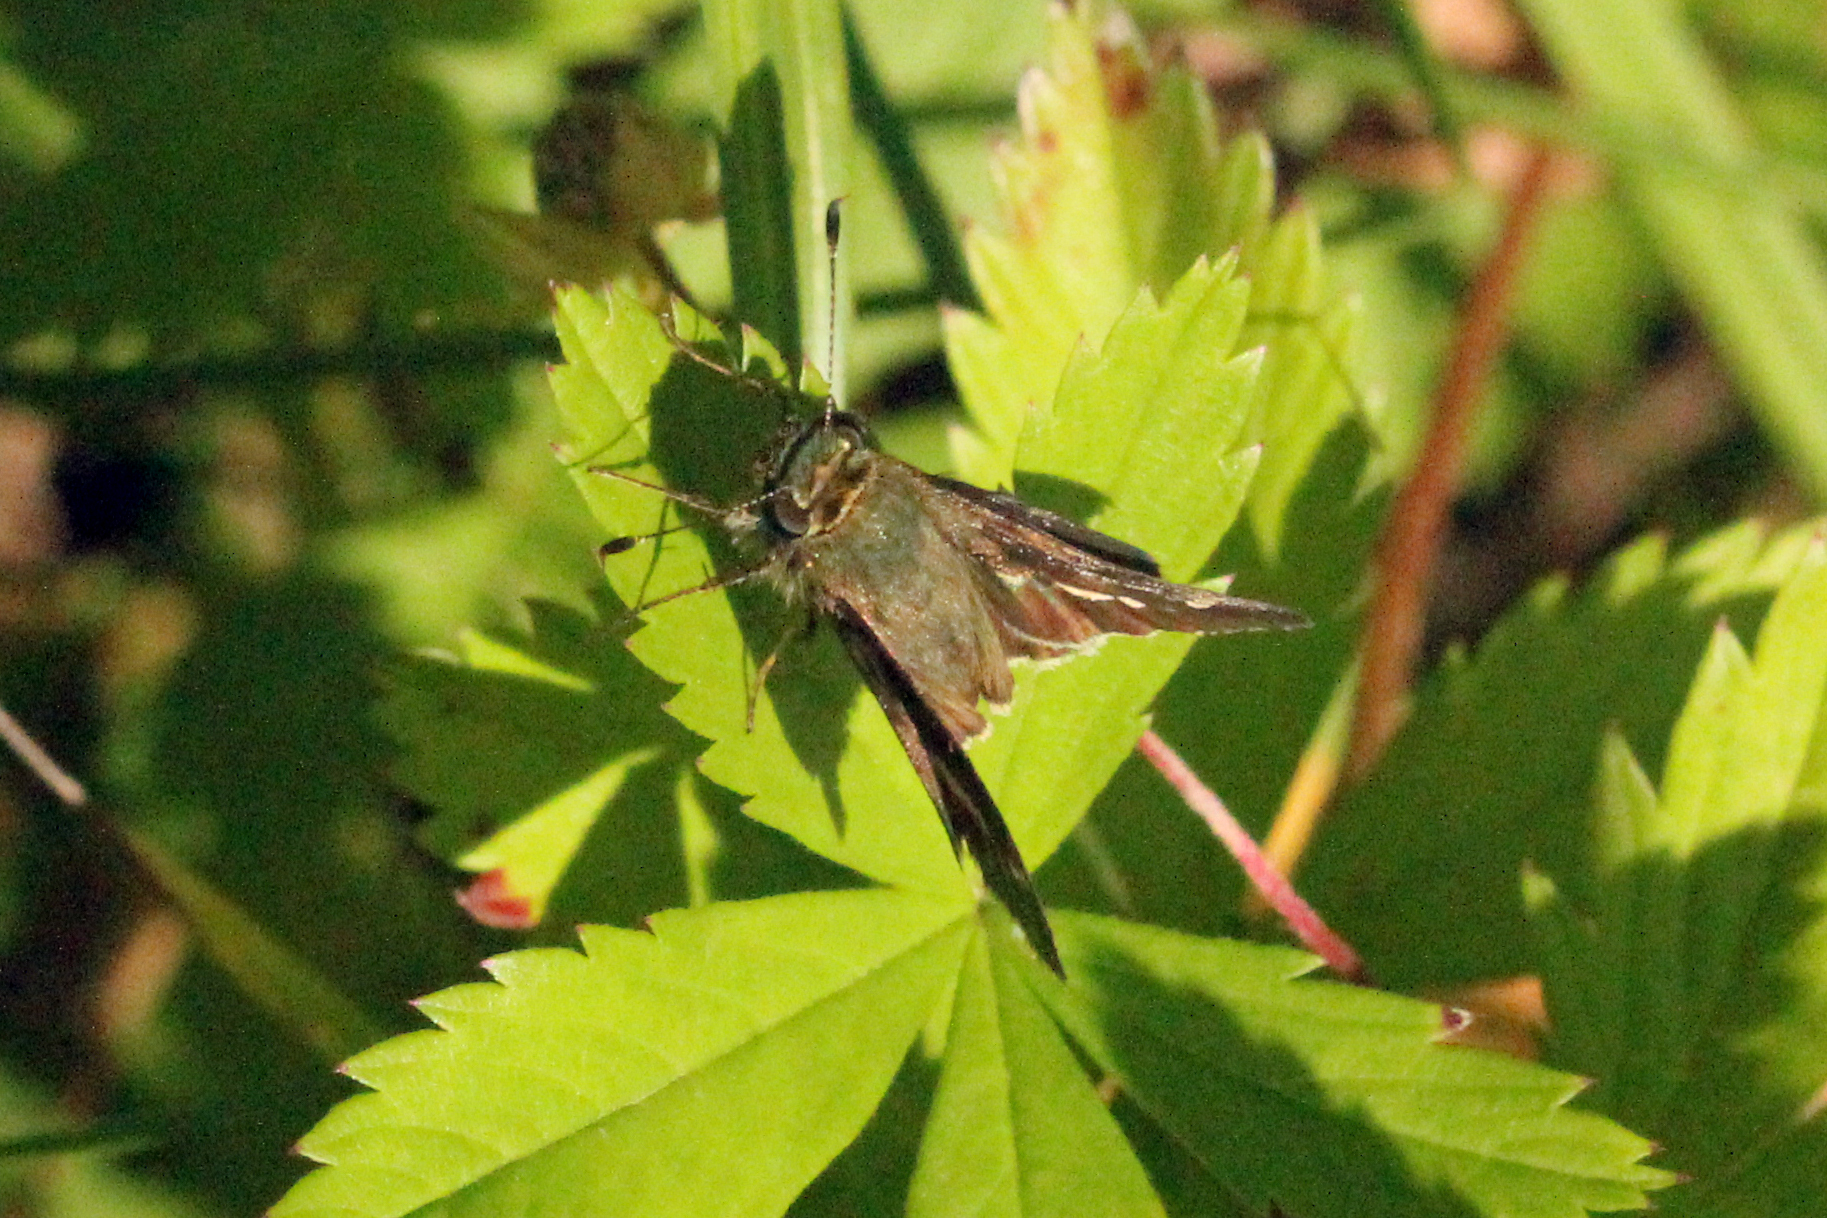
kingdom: Animalia
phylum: Arthropoda
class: Insecta
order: Lepidoptera
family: Hesperiidae
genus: Vernia
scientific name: Vernia verna
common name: Little glassywing
